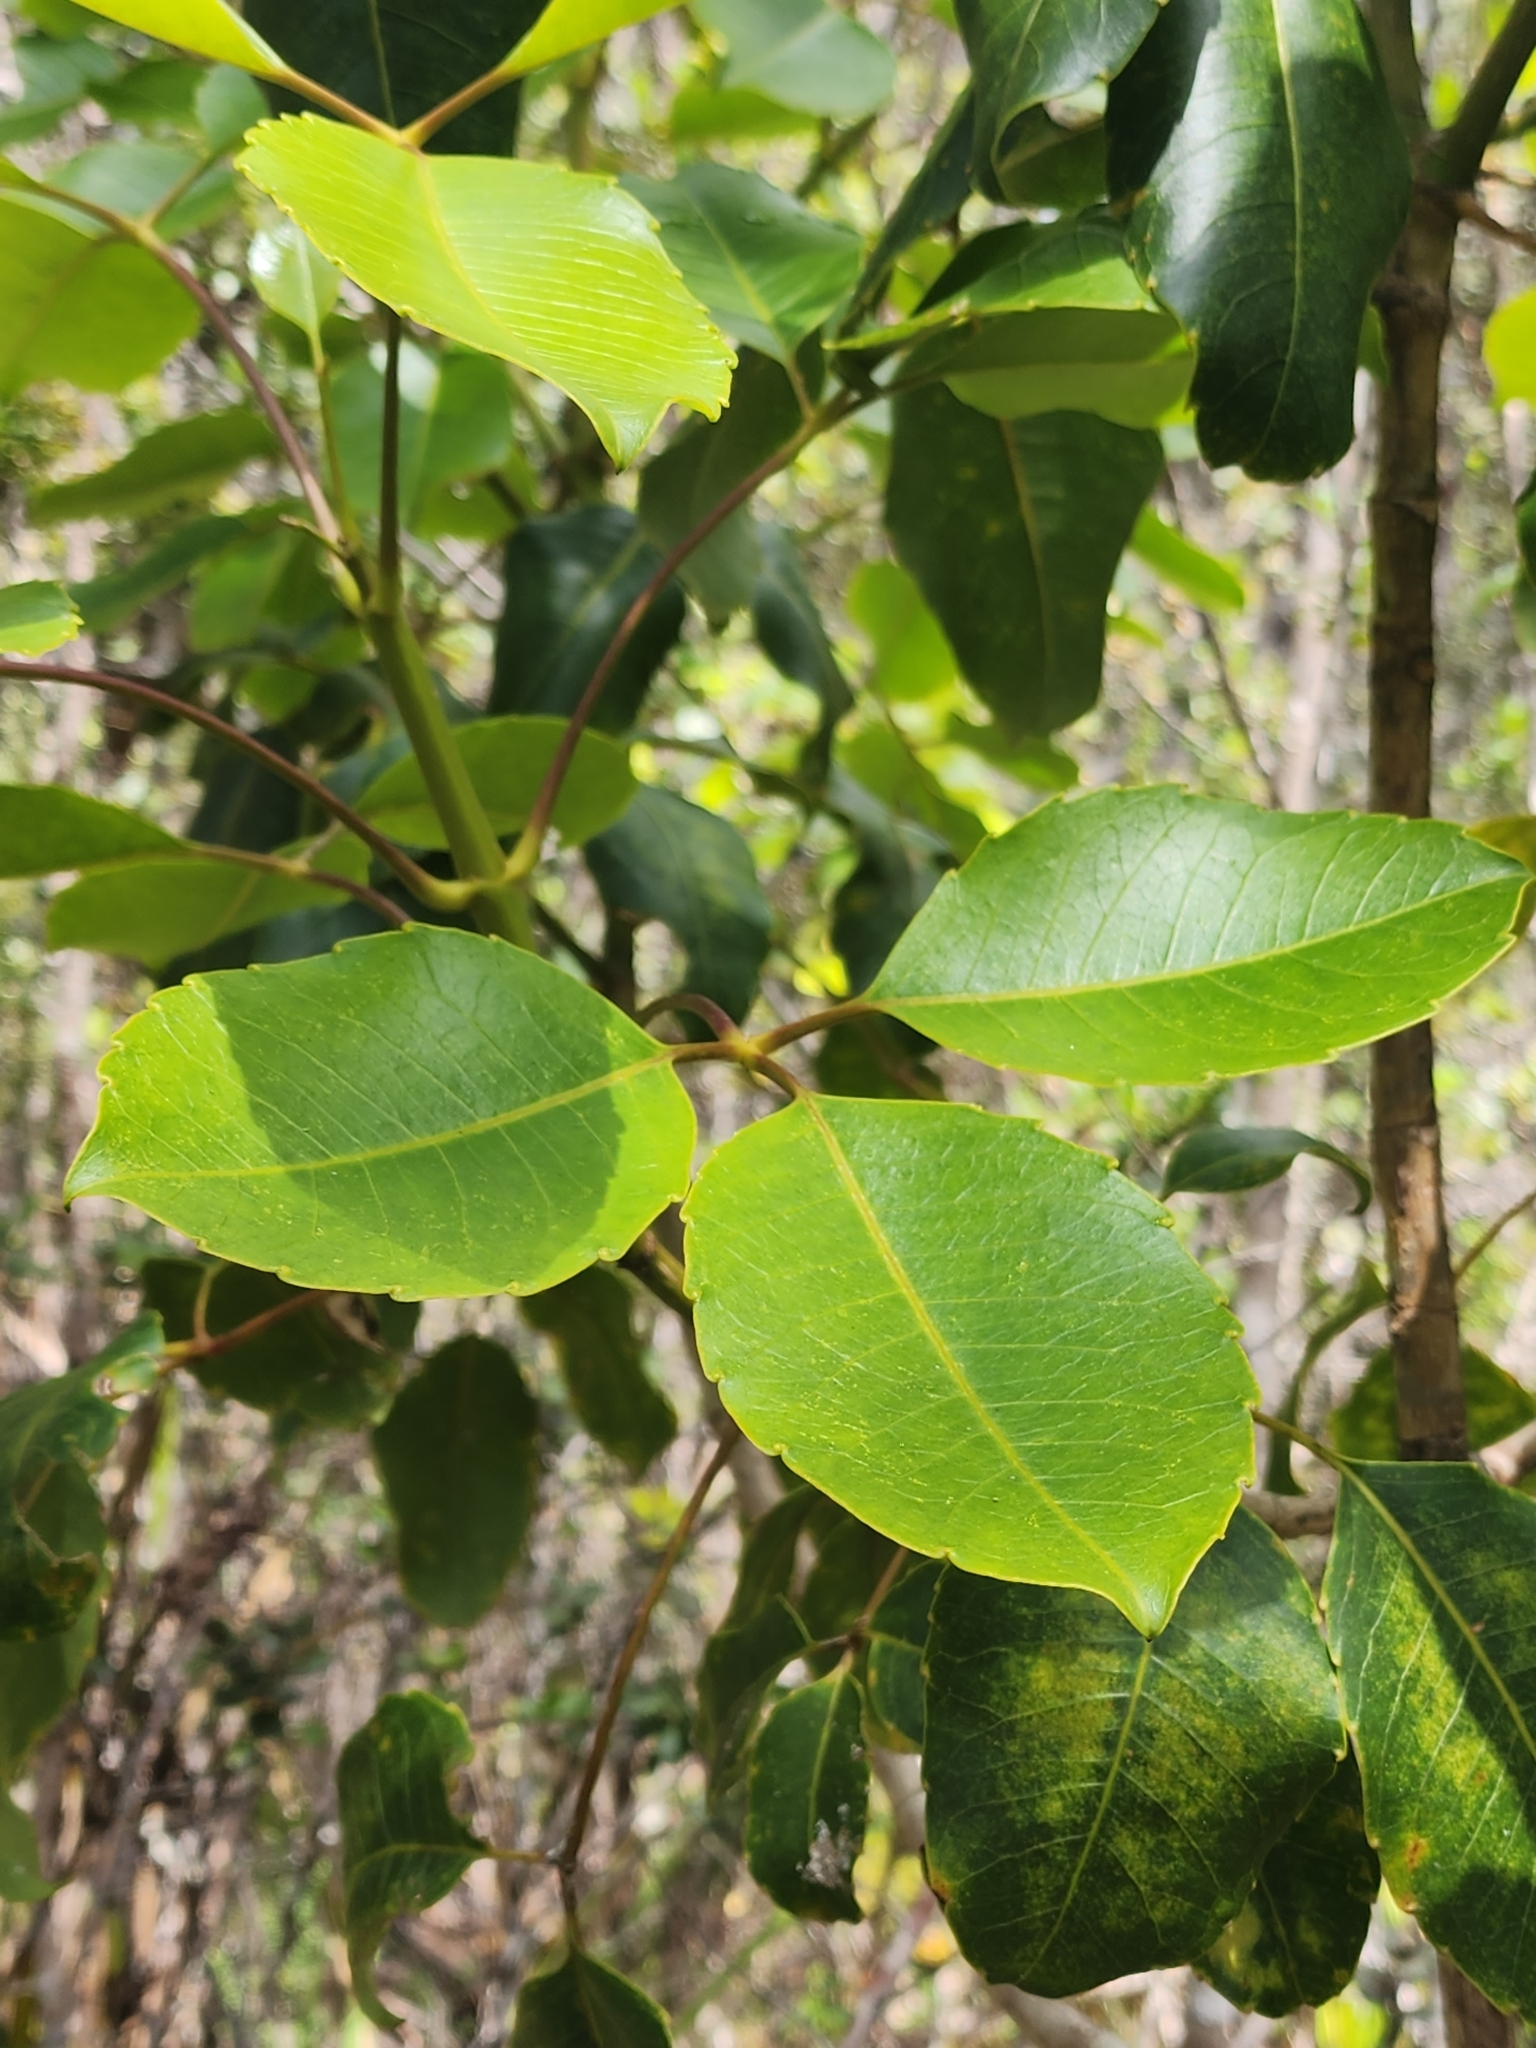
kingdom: Plantae
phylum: Tracheophyta
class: Magnoliopsida
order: Apiales
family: Araliaceae
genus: Cheirodendron
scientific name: Cheirodendron trigynum
